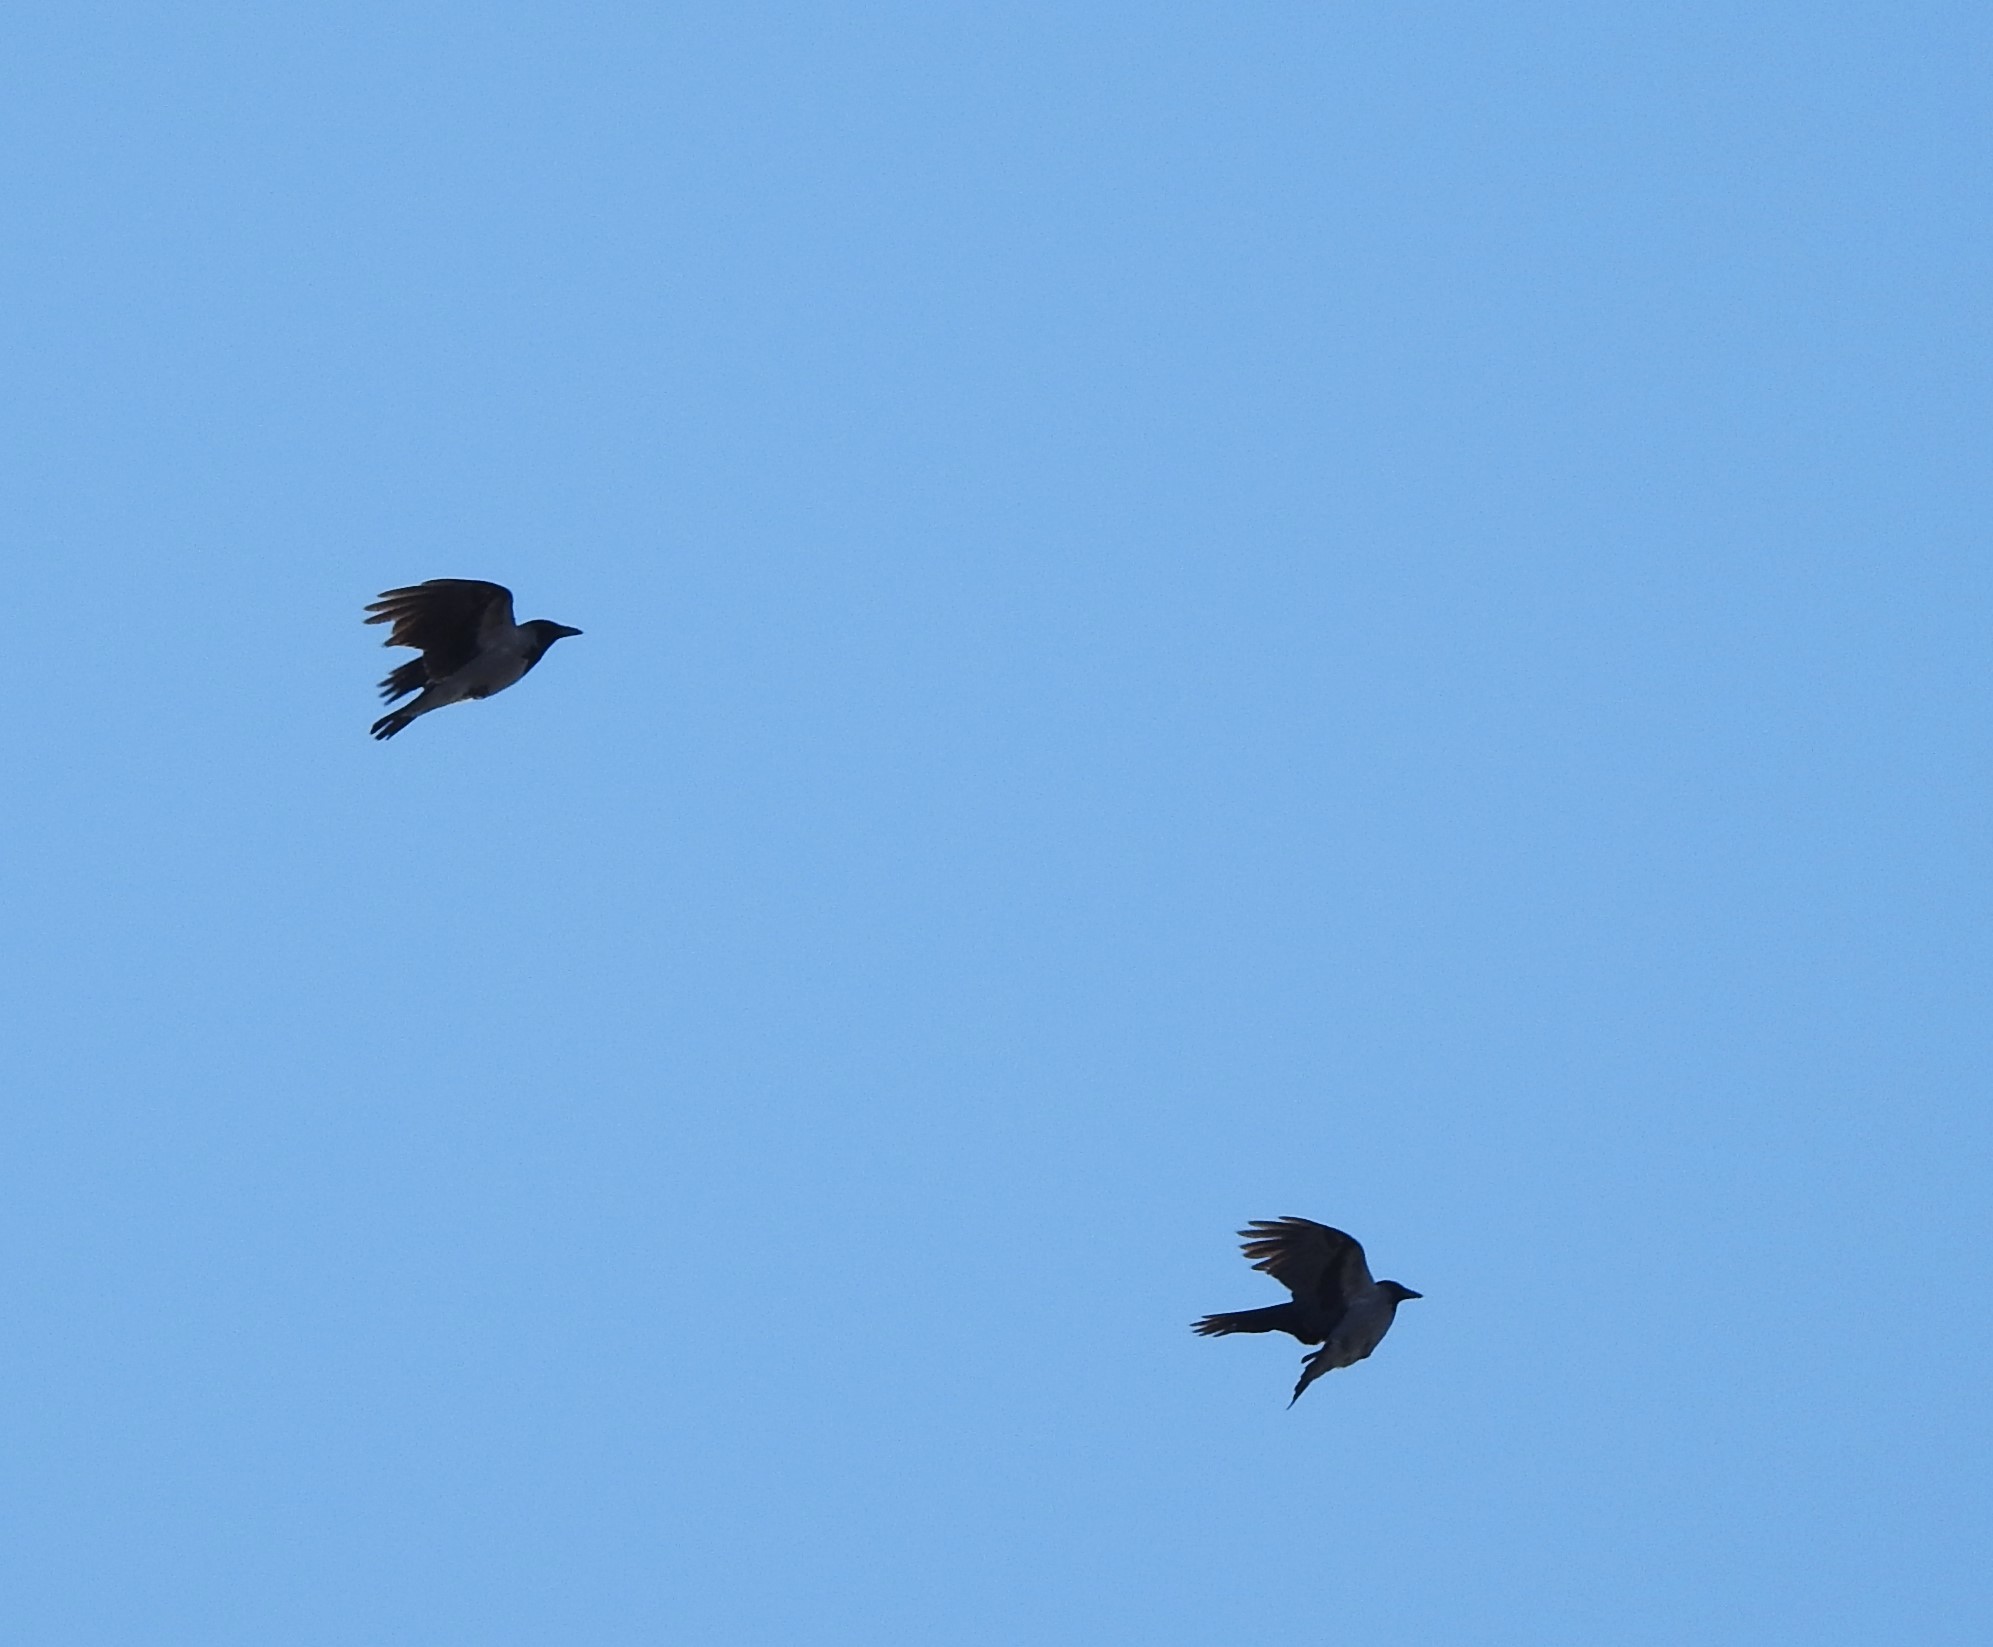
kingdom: Animalia
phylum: Chordata
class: Aves
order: Passeriformes
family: Corvidae
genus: Corvus
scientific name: Corvus cornix
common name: Hooded crow
